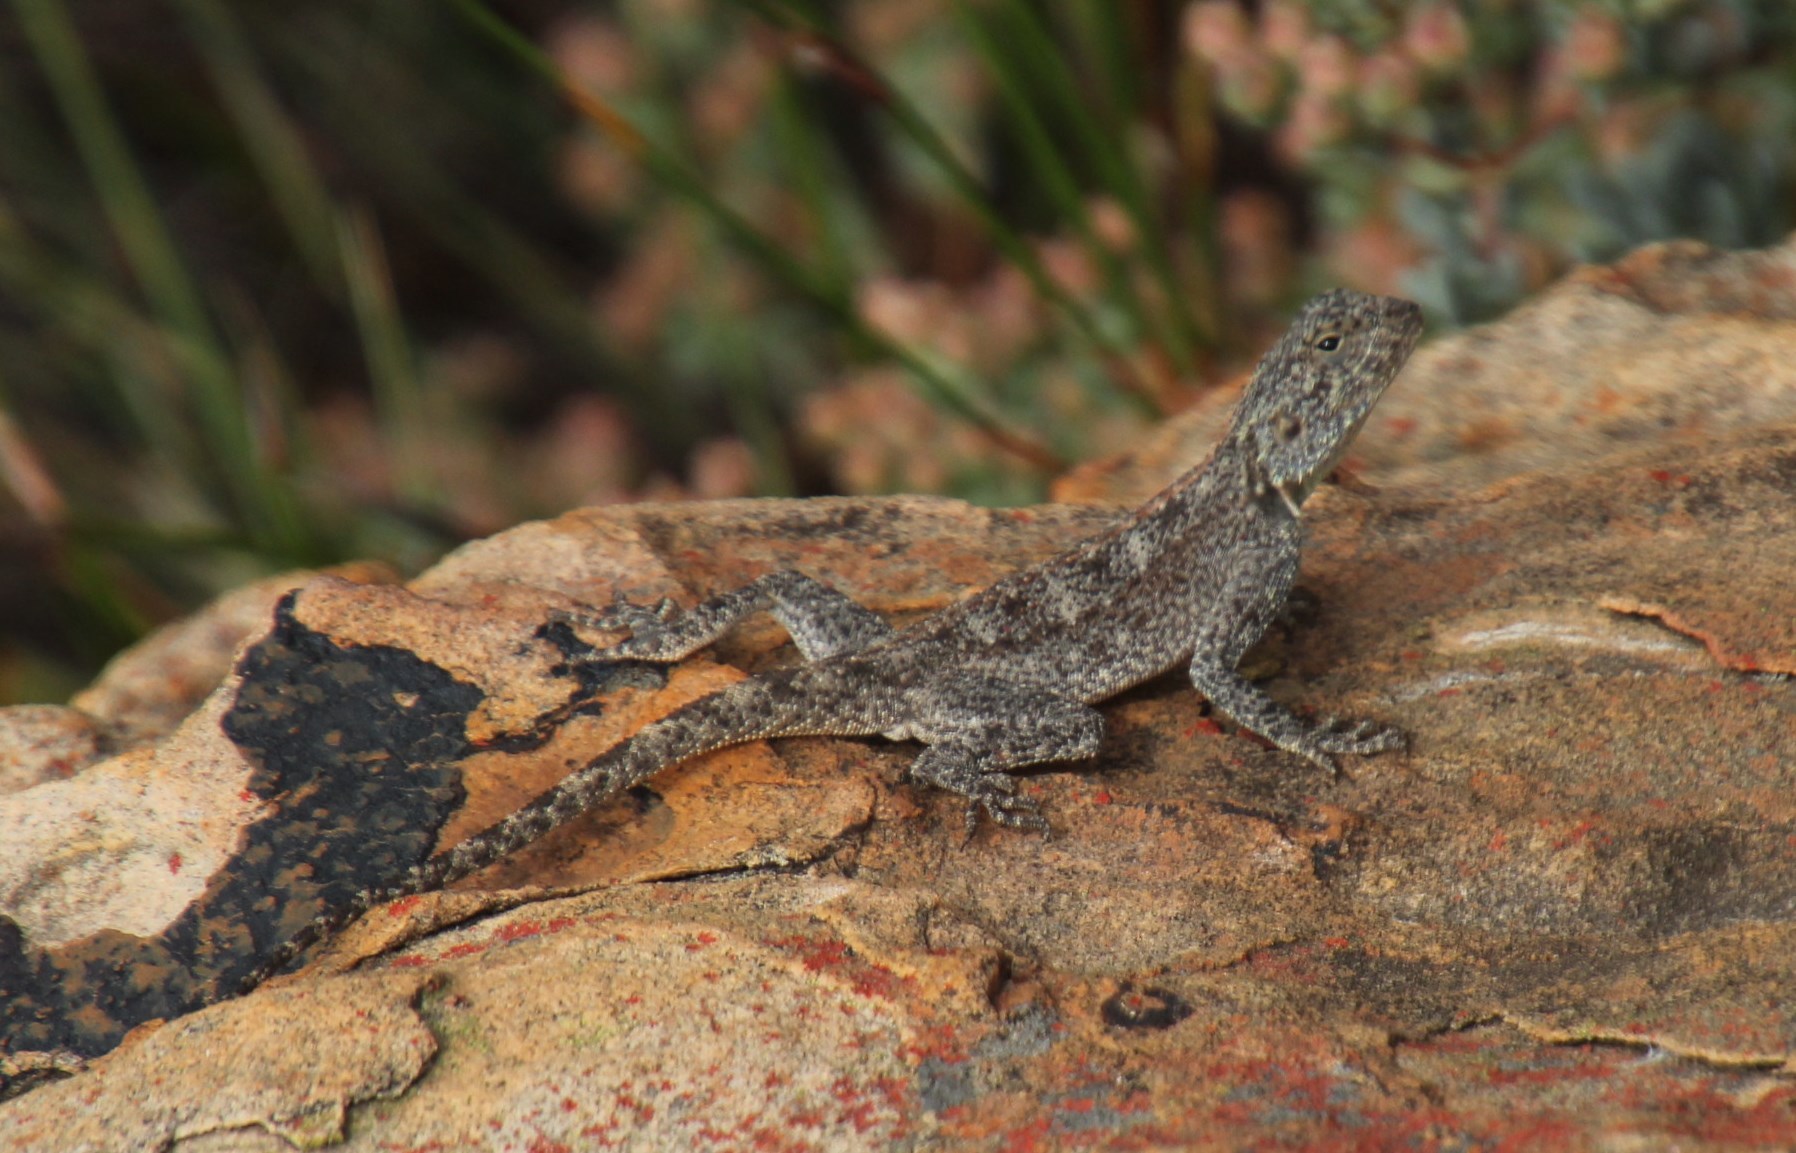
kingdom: Animalia
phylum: Chordata
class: Squamata
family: Agamidae
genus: Agama
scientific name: Agama atra
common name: Southern african rock agama
